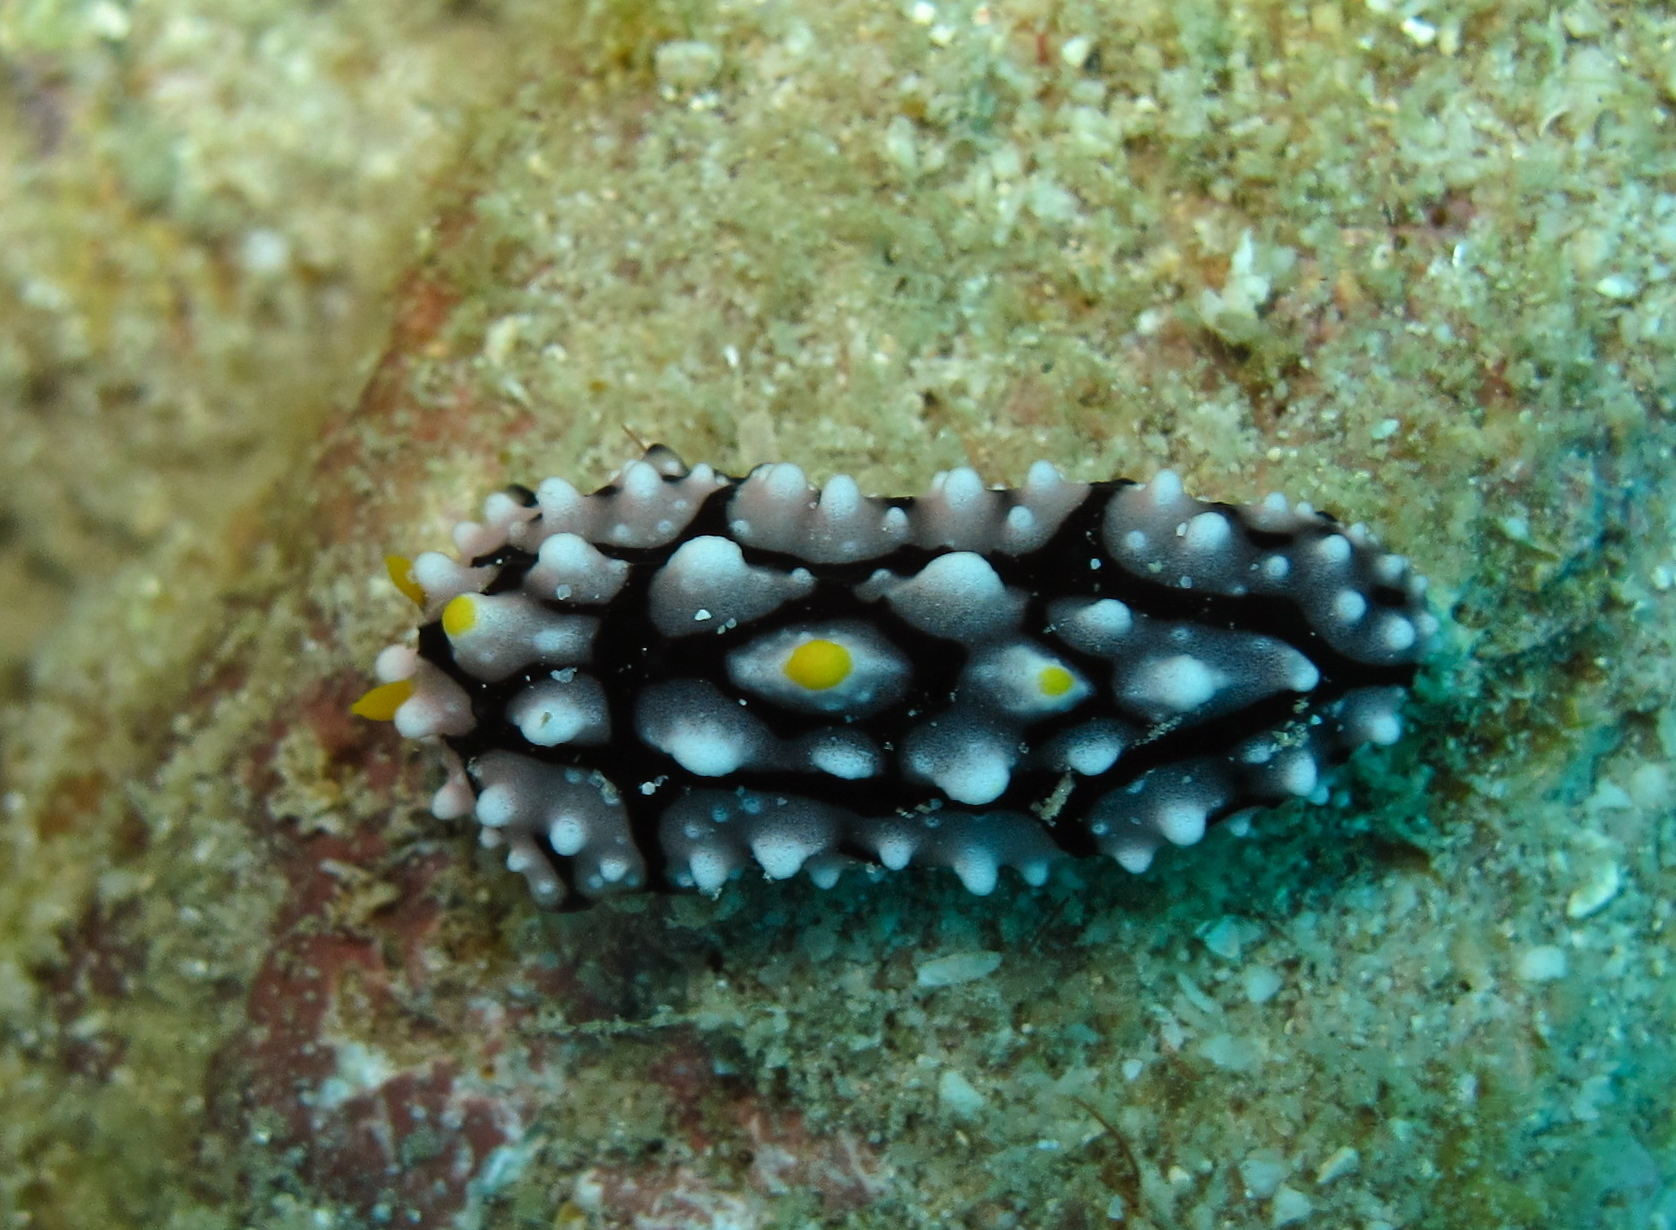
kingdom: Animalia
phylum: Mollusca
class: Gastropoda
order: Nudibranchia
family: Phyllidiidae
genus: Phyllidia
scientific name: Phyllidia elegans
